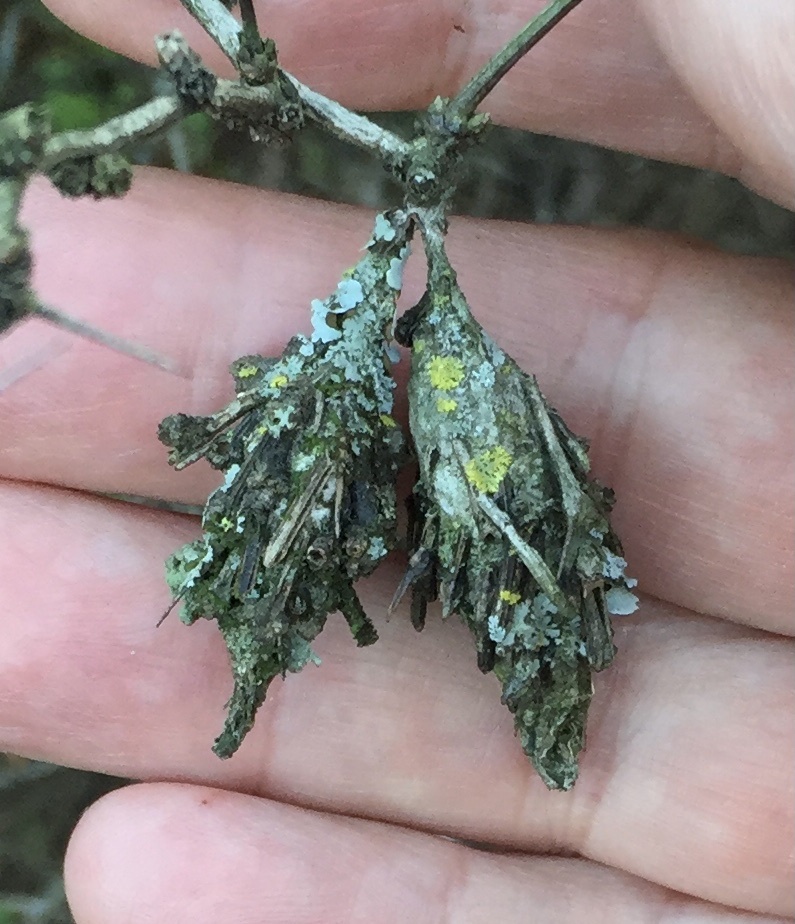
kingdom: Animalia
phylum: Arthropoda
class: Insecta
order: Lepidoptera
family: Psychidae
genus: Thyridopteryx
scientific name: Thyridopteryx ephemeraeformis
